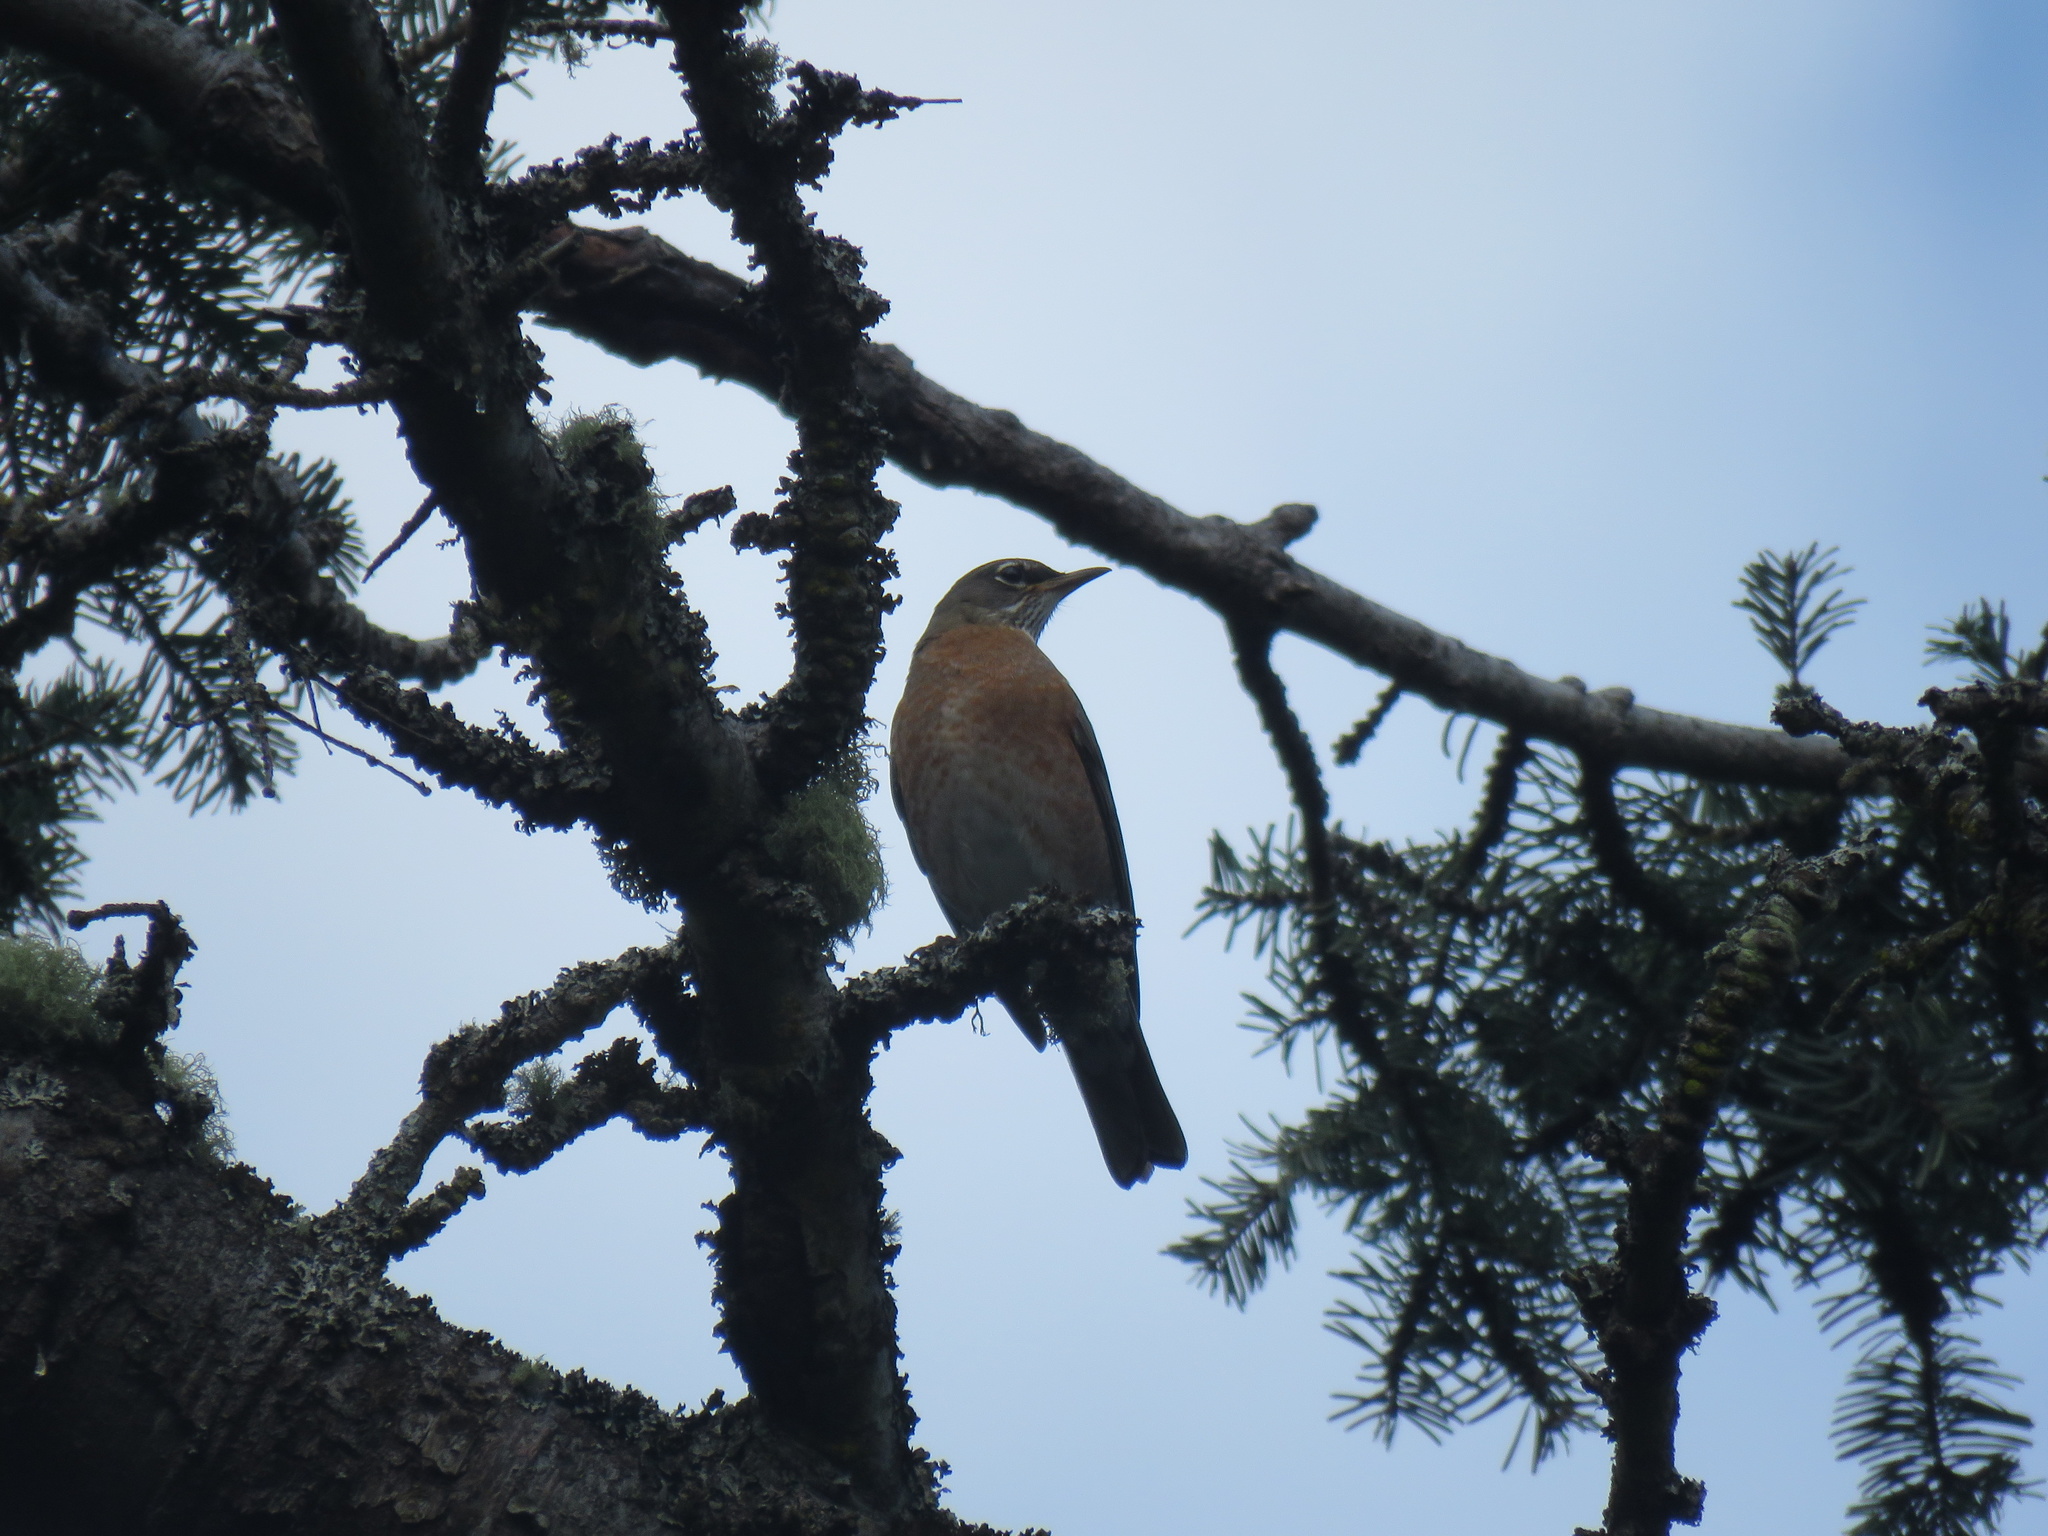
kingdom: Animalia
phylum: Chordata
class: Aves
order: Passeriformes
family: Turdidae
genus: Turdus
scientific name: Turdus migratorius
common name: American robin
